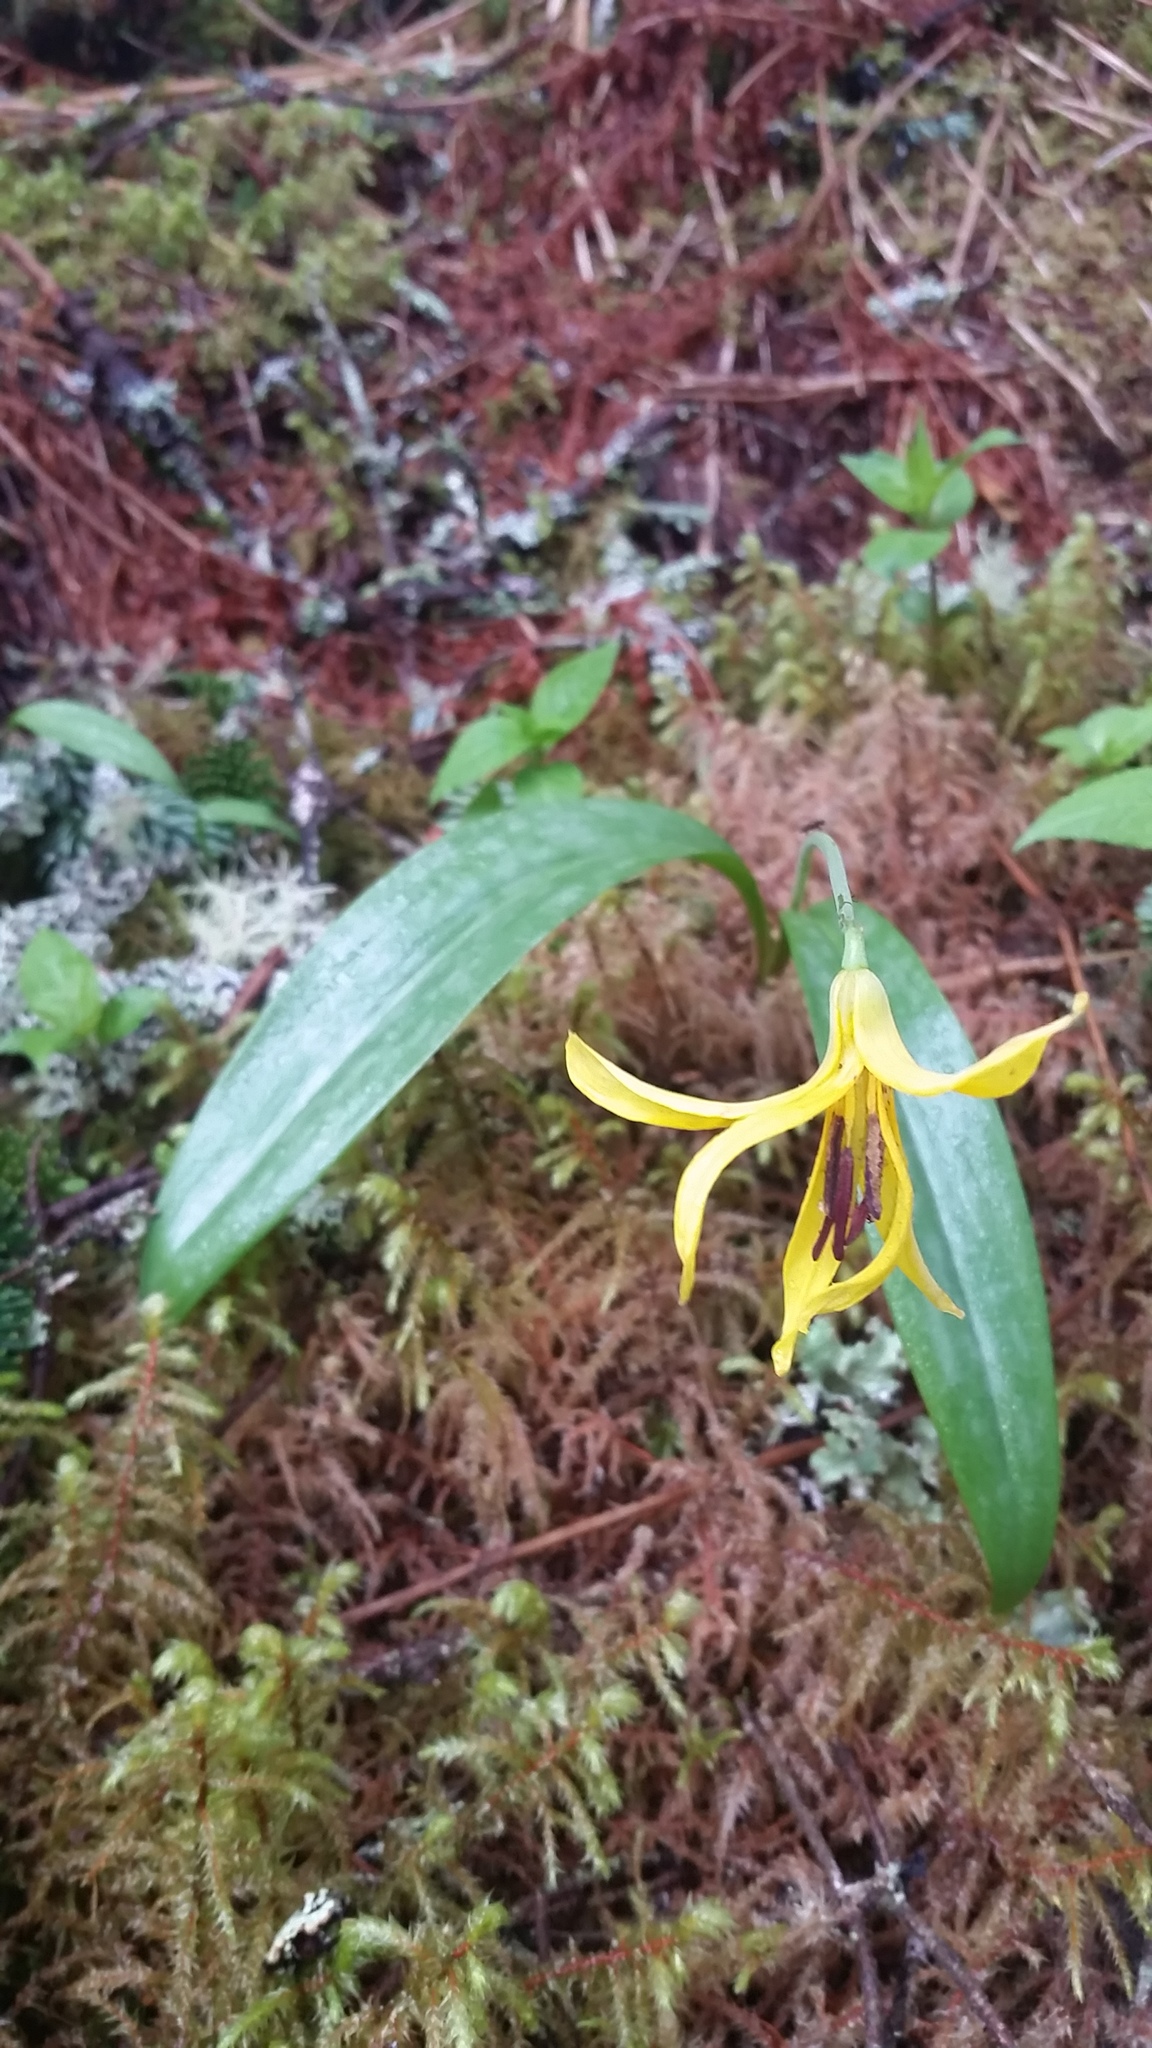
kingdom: Plantae
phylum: Tracheophyta
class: Liliopsida
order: Liliales
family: Liliaceae
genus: Erythronium
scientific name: Erythronium umbilicatum
